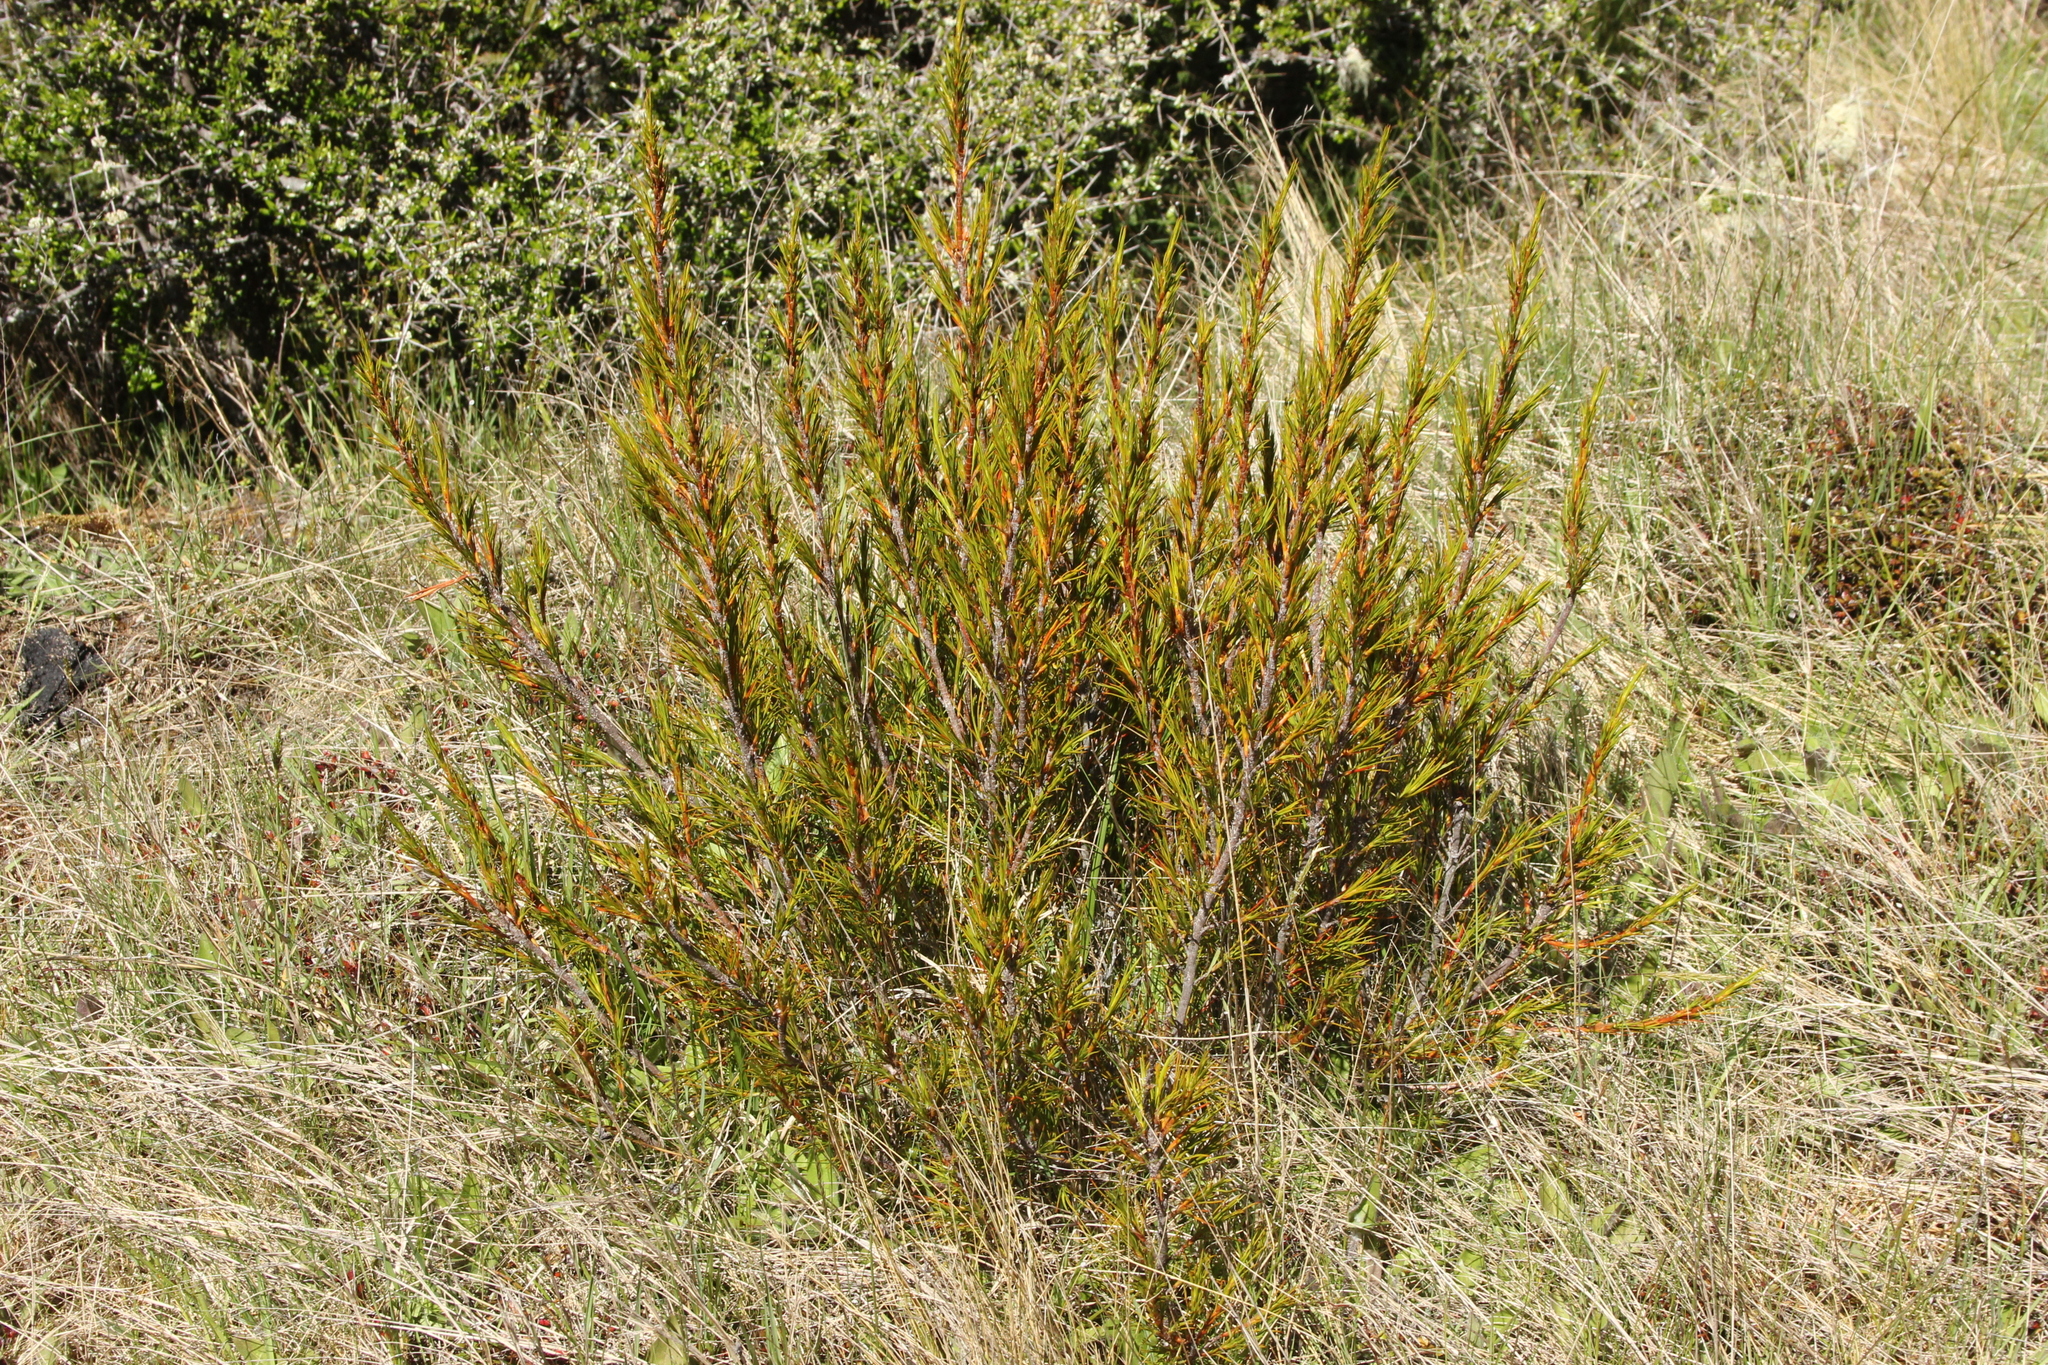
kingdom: Plantae
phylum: Tracheophyta
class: Magnoliopsida
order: Ericales
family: Ericaceae
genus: Dracophyllum
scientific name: Dracophyllum rosmarinifolium
